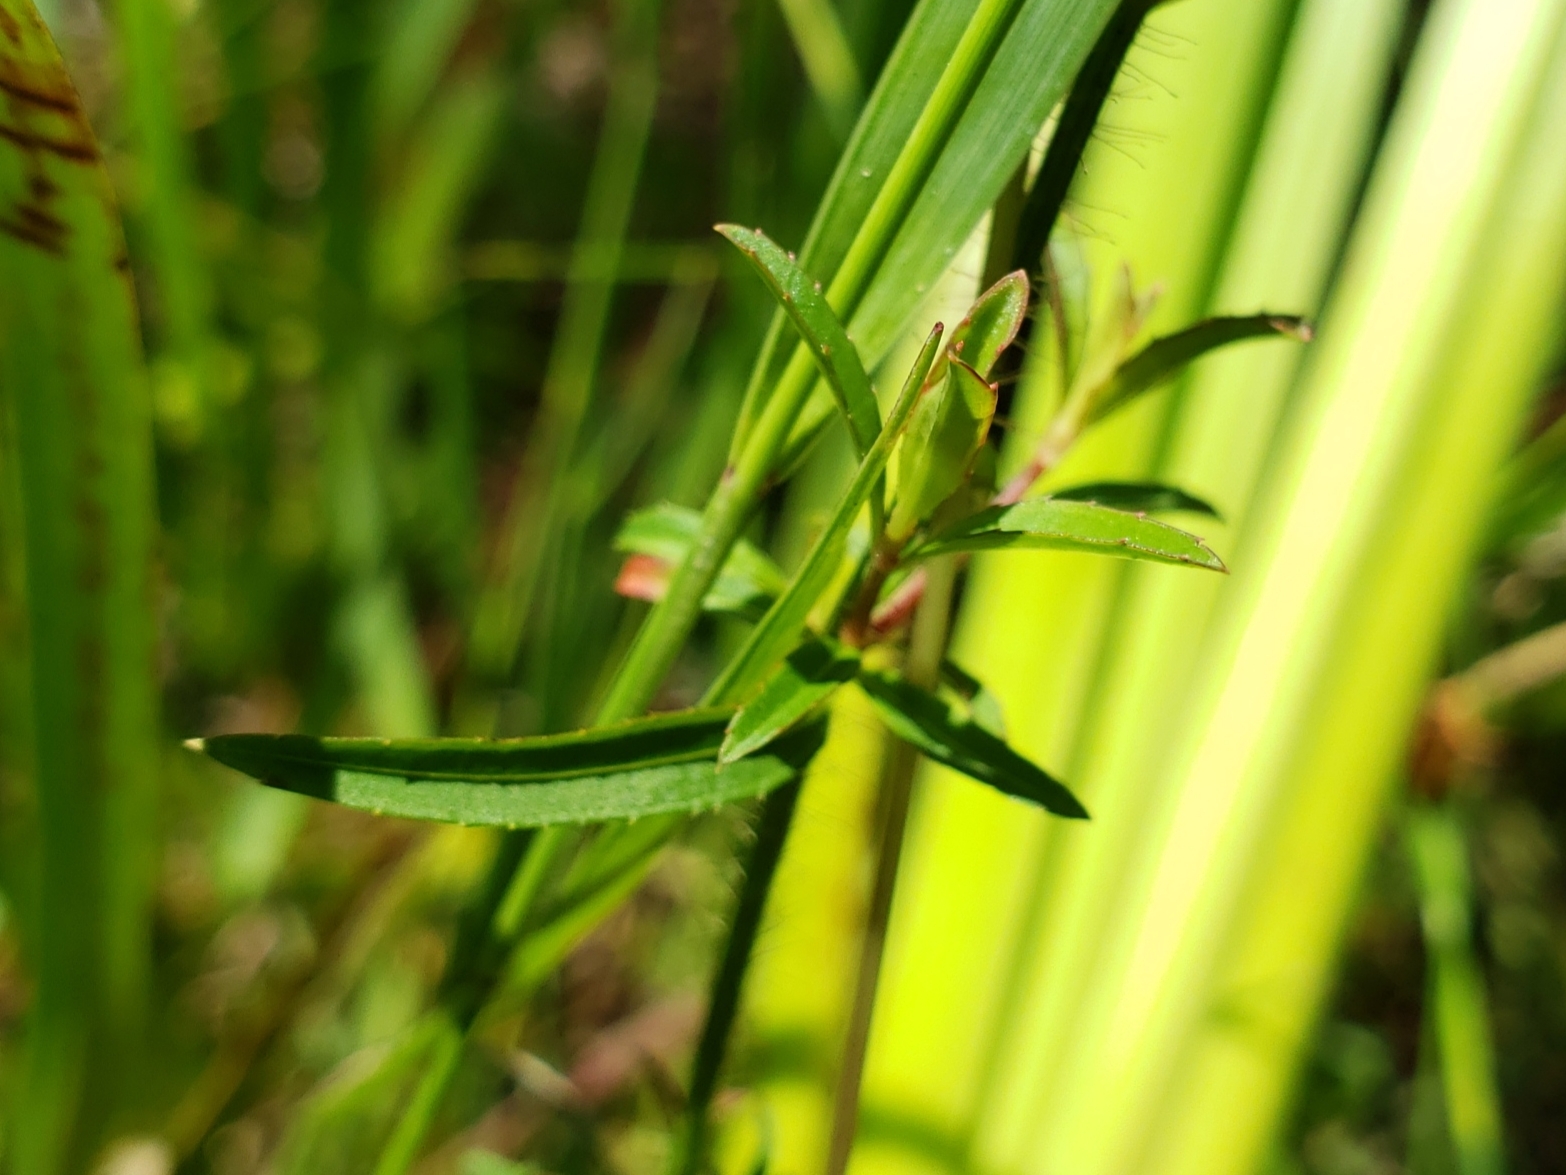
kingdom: Plantae
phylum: Tracheophyta
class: Magnoliopsida
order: Myrtales
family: Melastomataceae
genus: Rhexia
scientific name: Rhexia mariana
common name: Dull meadow-pitcher
